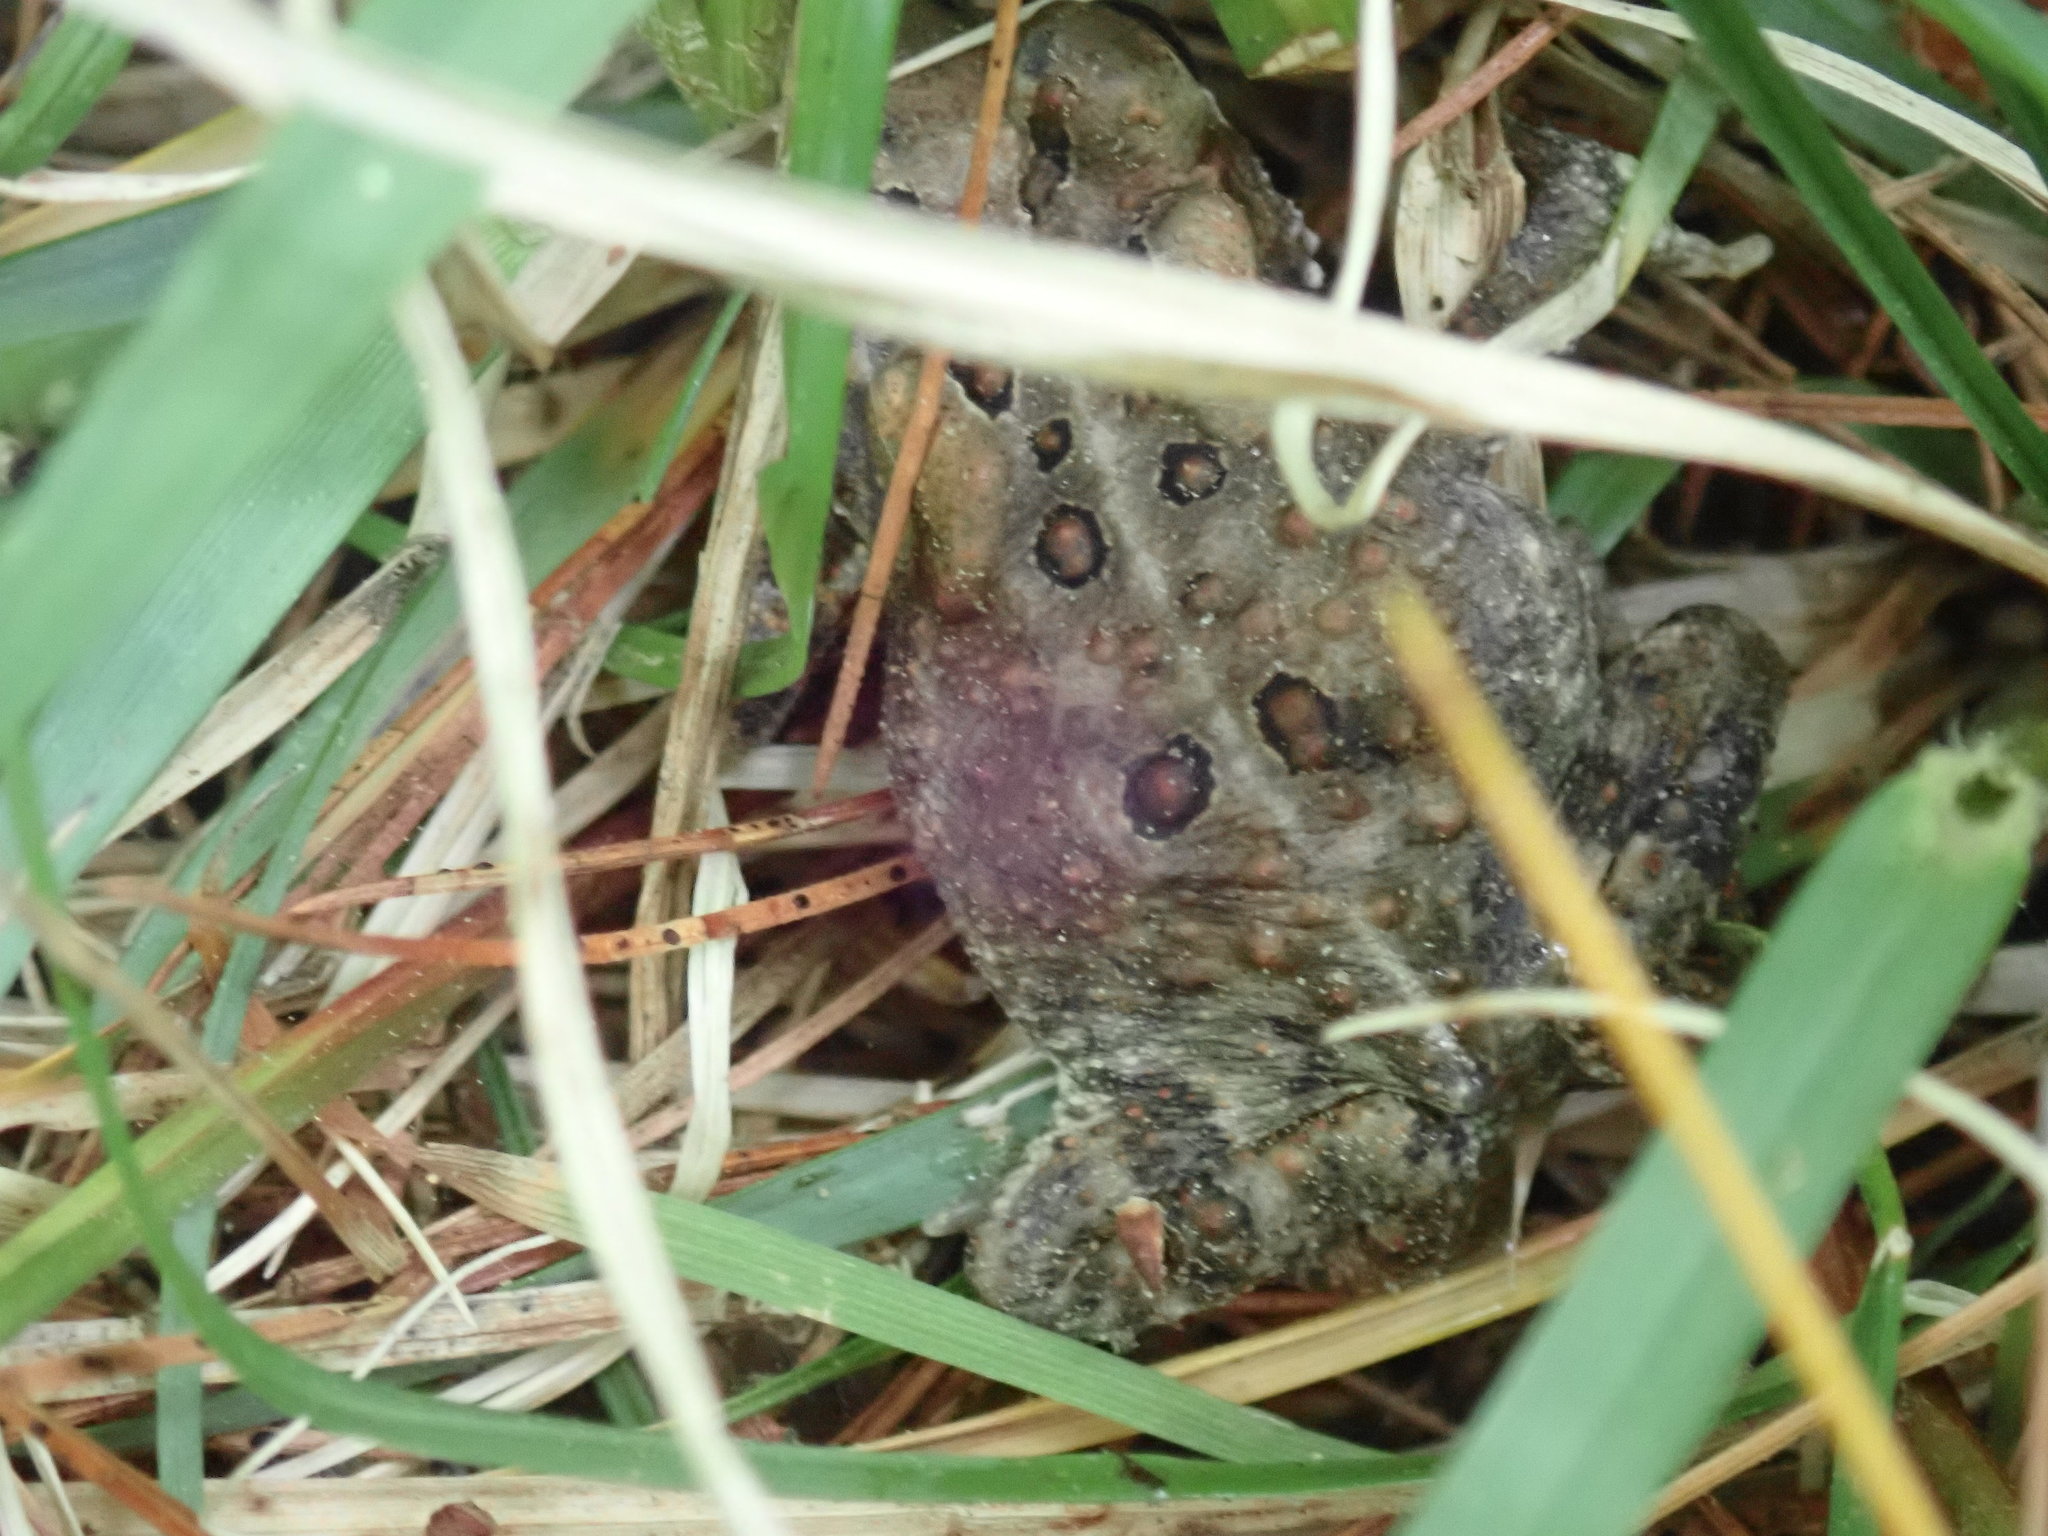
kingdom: Animalia
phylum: Chordata
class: Amphibia
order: Anura
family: Bufonidae
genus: Anaxyrus
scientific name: Anaxyrus americanus
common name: American toad
